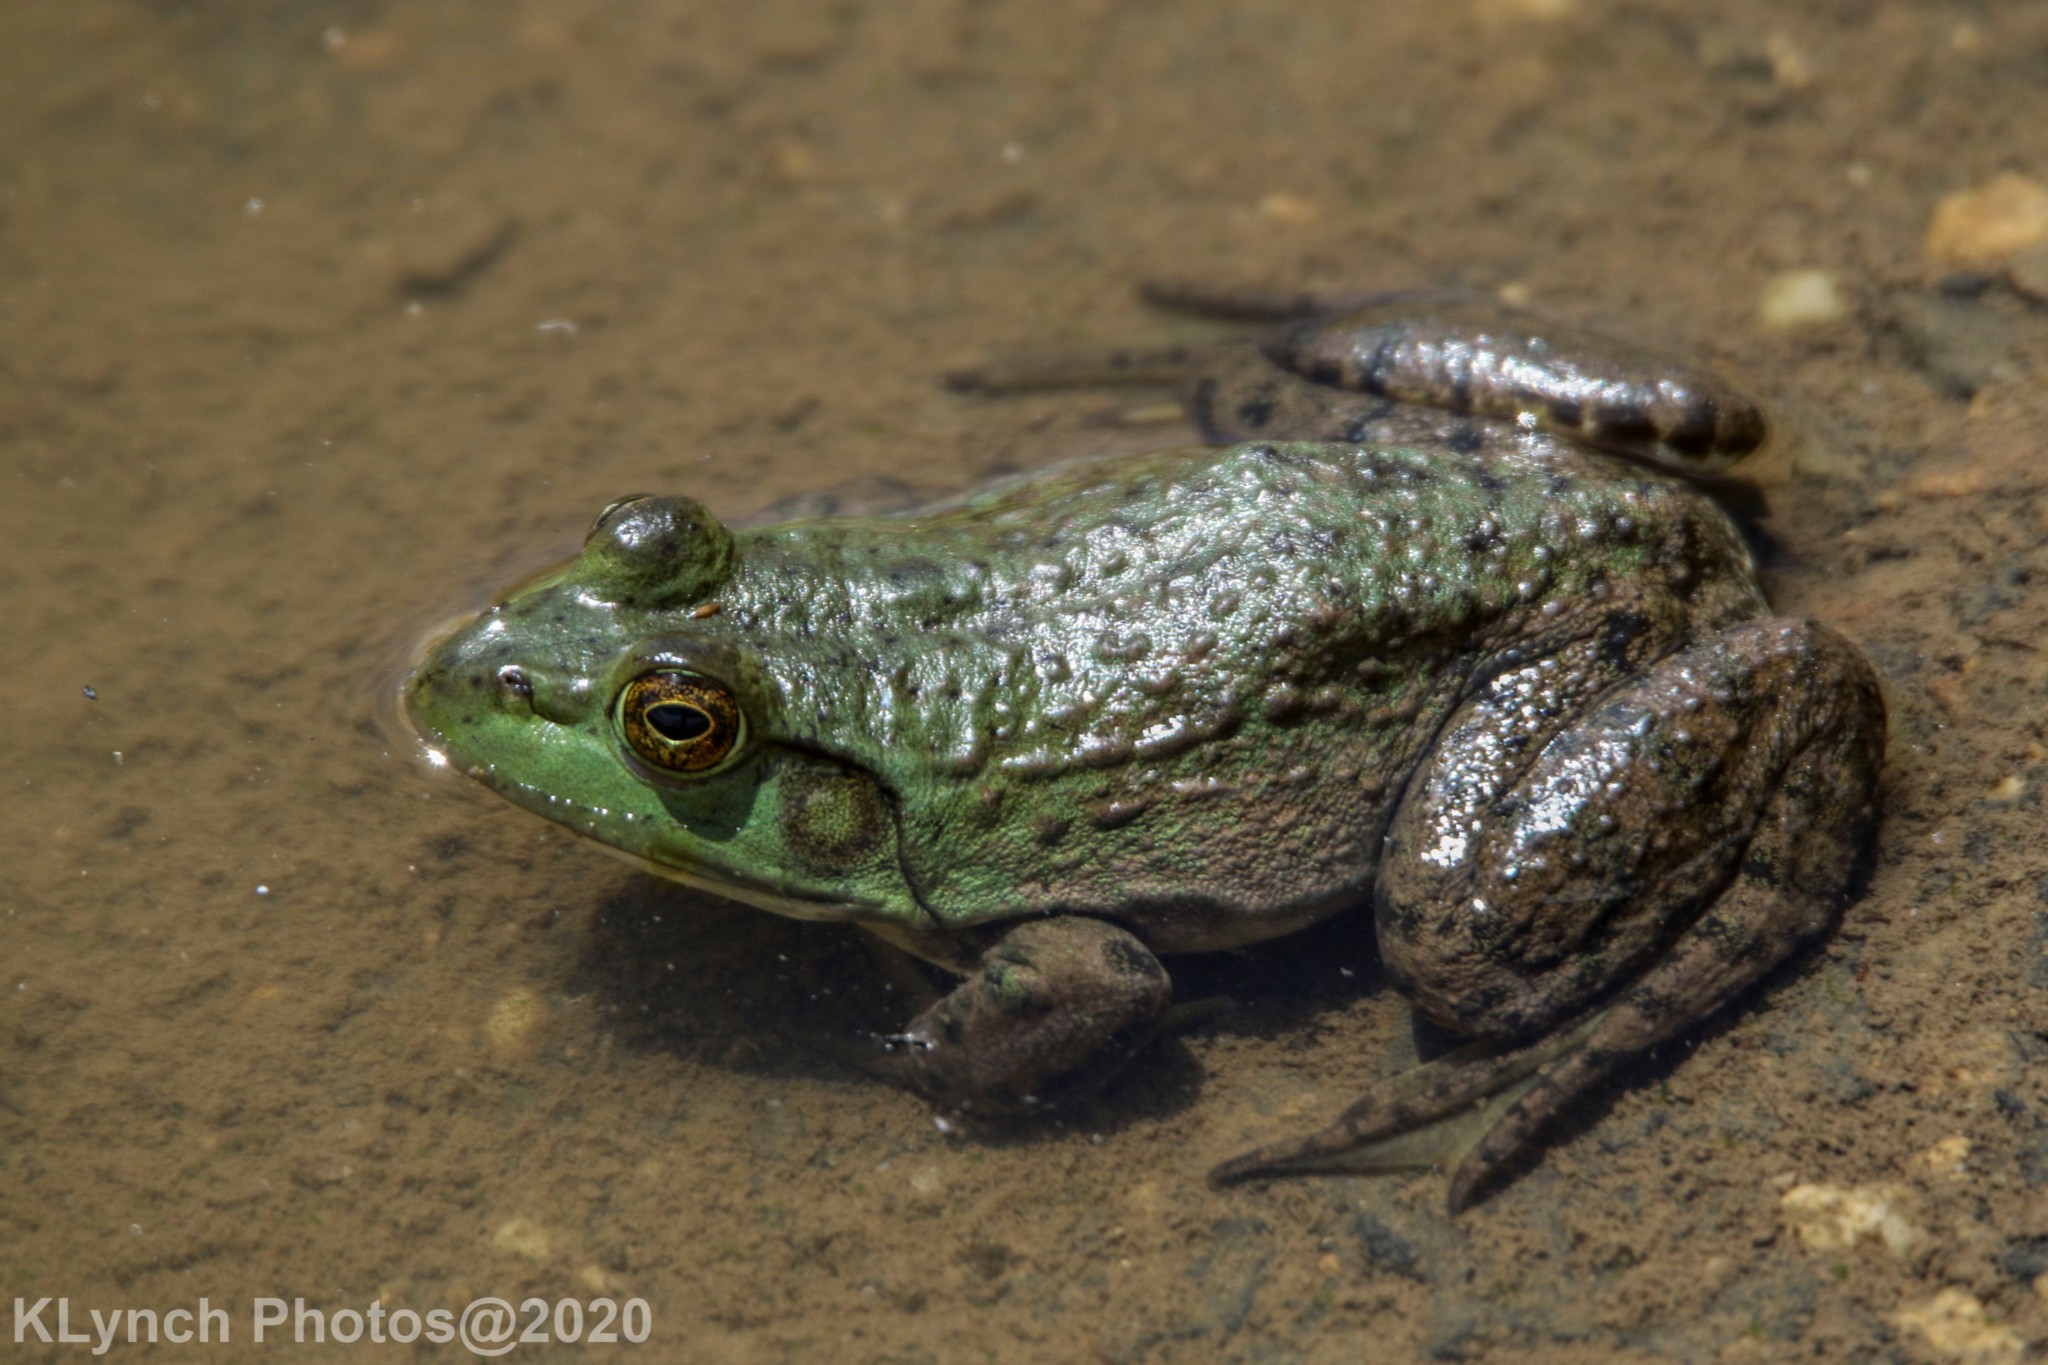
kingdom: Animalia
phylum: Chordata
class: Amphibia
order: Anura
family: Ranidae
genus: Lithobates
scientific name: Lithobates catesbeianus
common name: American bullfrog
